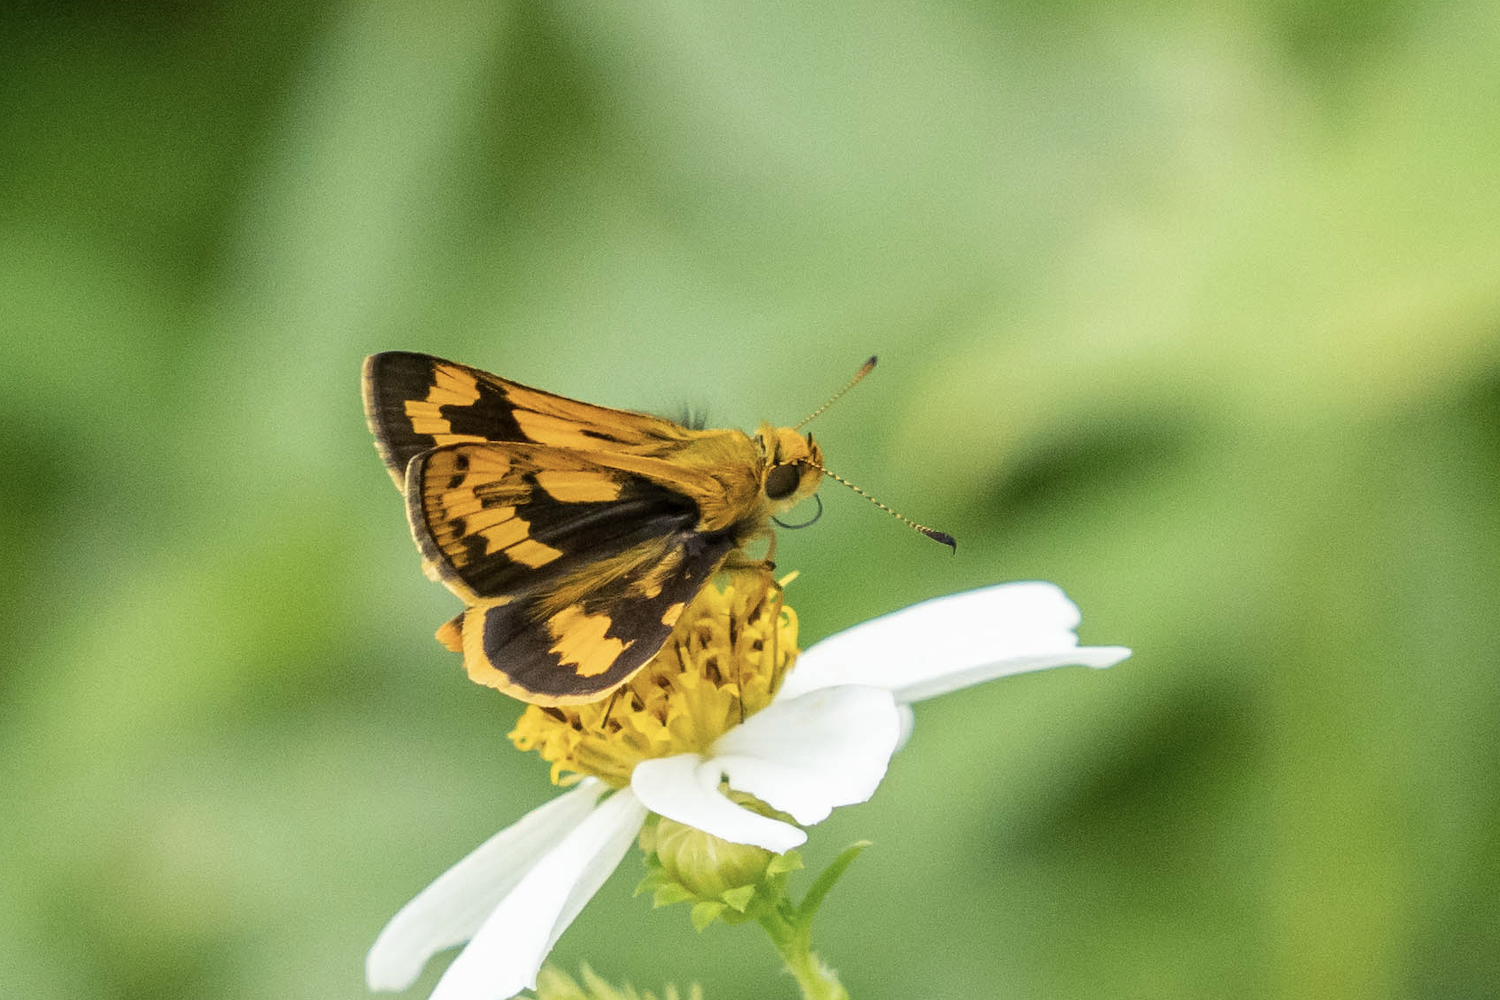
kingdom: Animalia
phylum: Arthropoda
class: Insecta
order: Lepidoptera
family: Hesperiidae
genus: Potanthus
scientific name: Potanthus confucius
